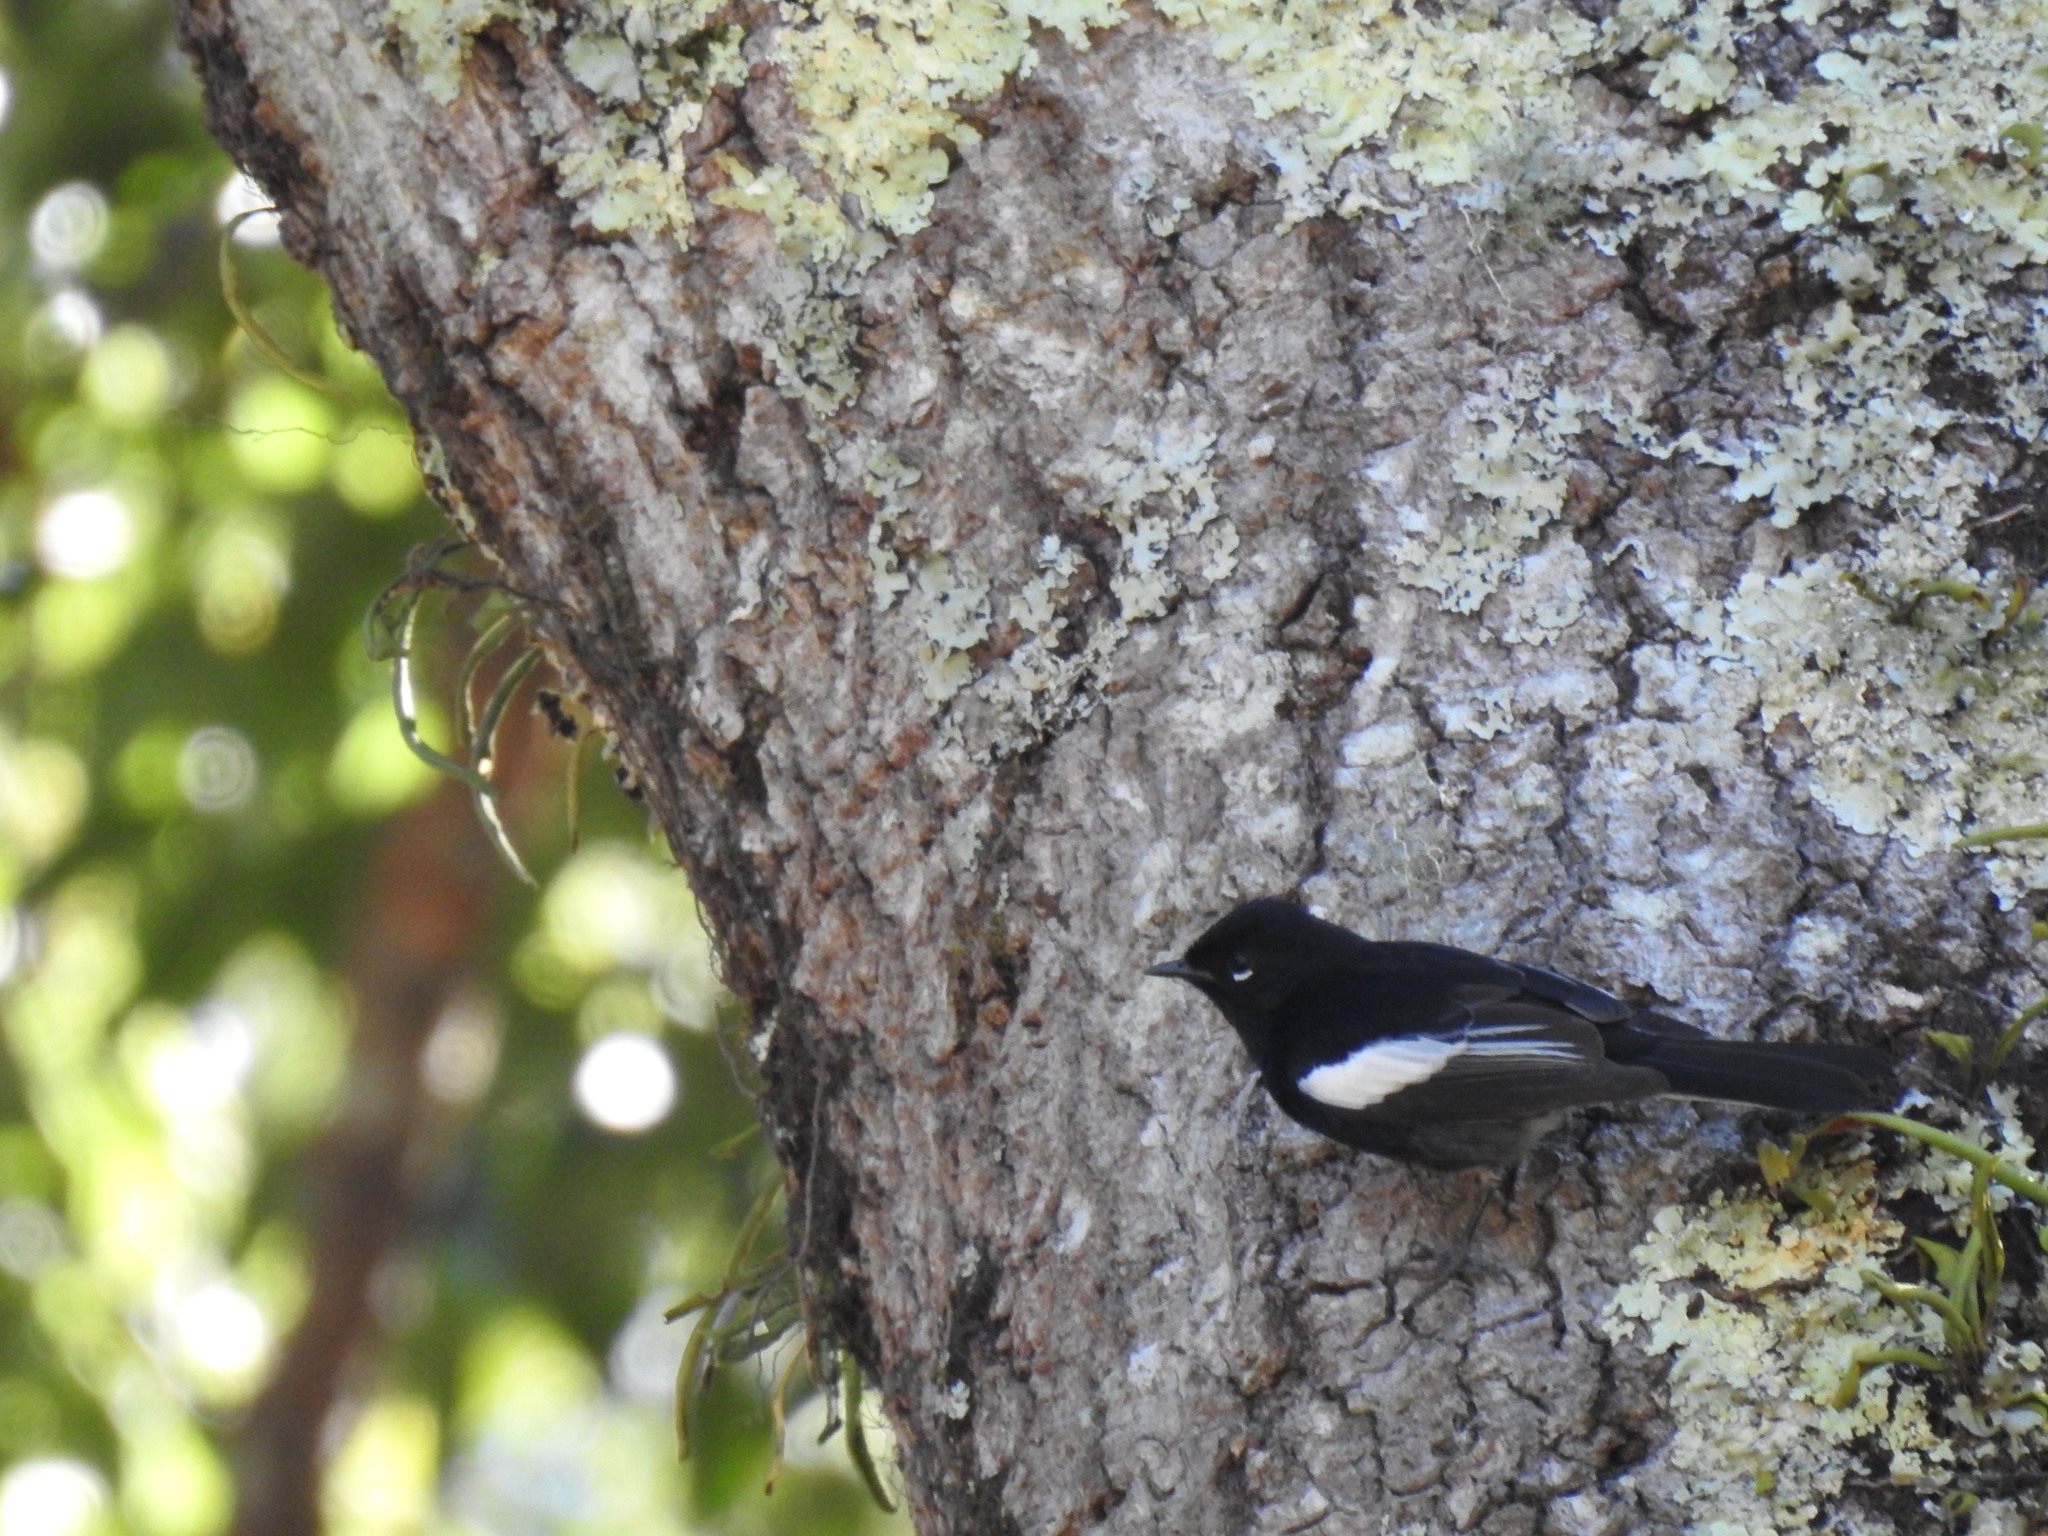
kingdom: Animalia
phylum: Chordata
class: Aves
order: Passeriformes
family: Parulidae
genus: Myioborus
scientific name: Myioborus pictus
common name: Painted whitestart
